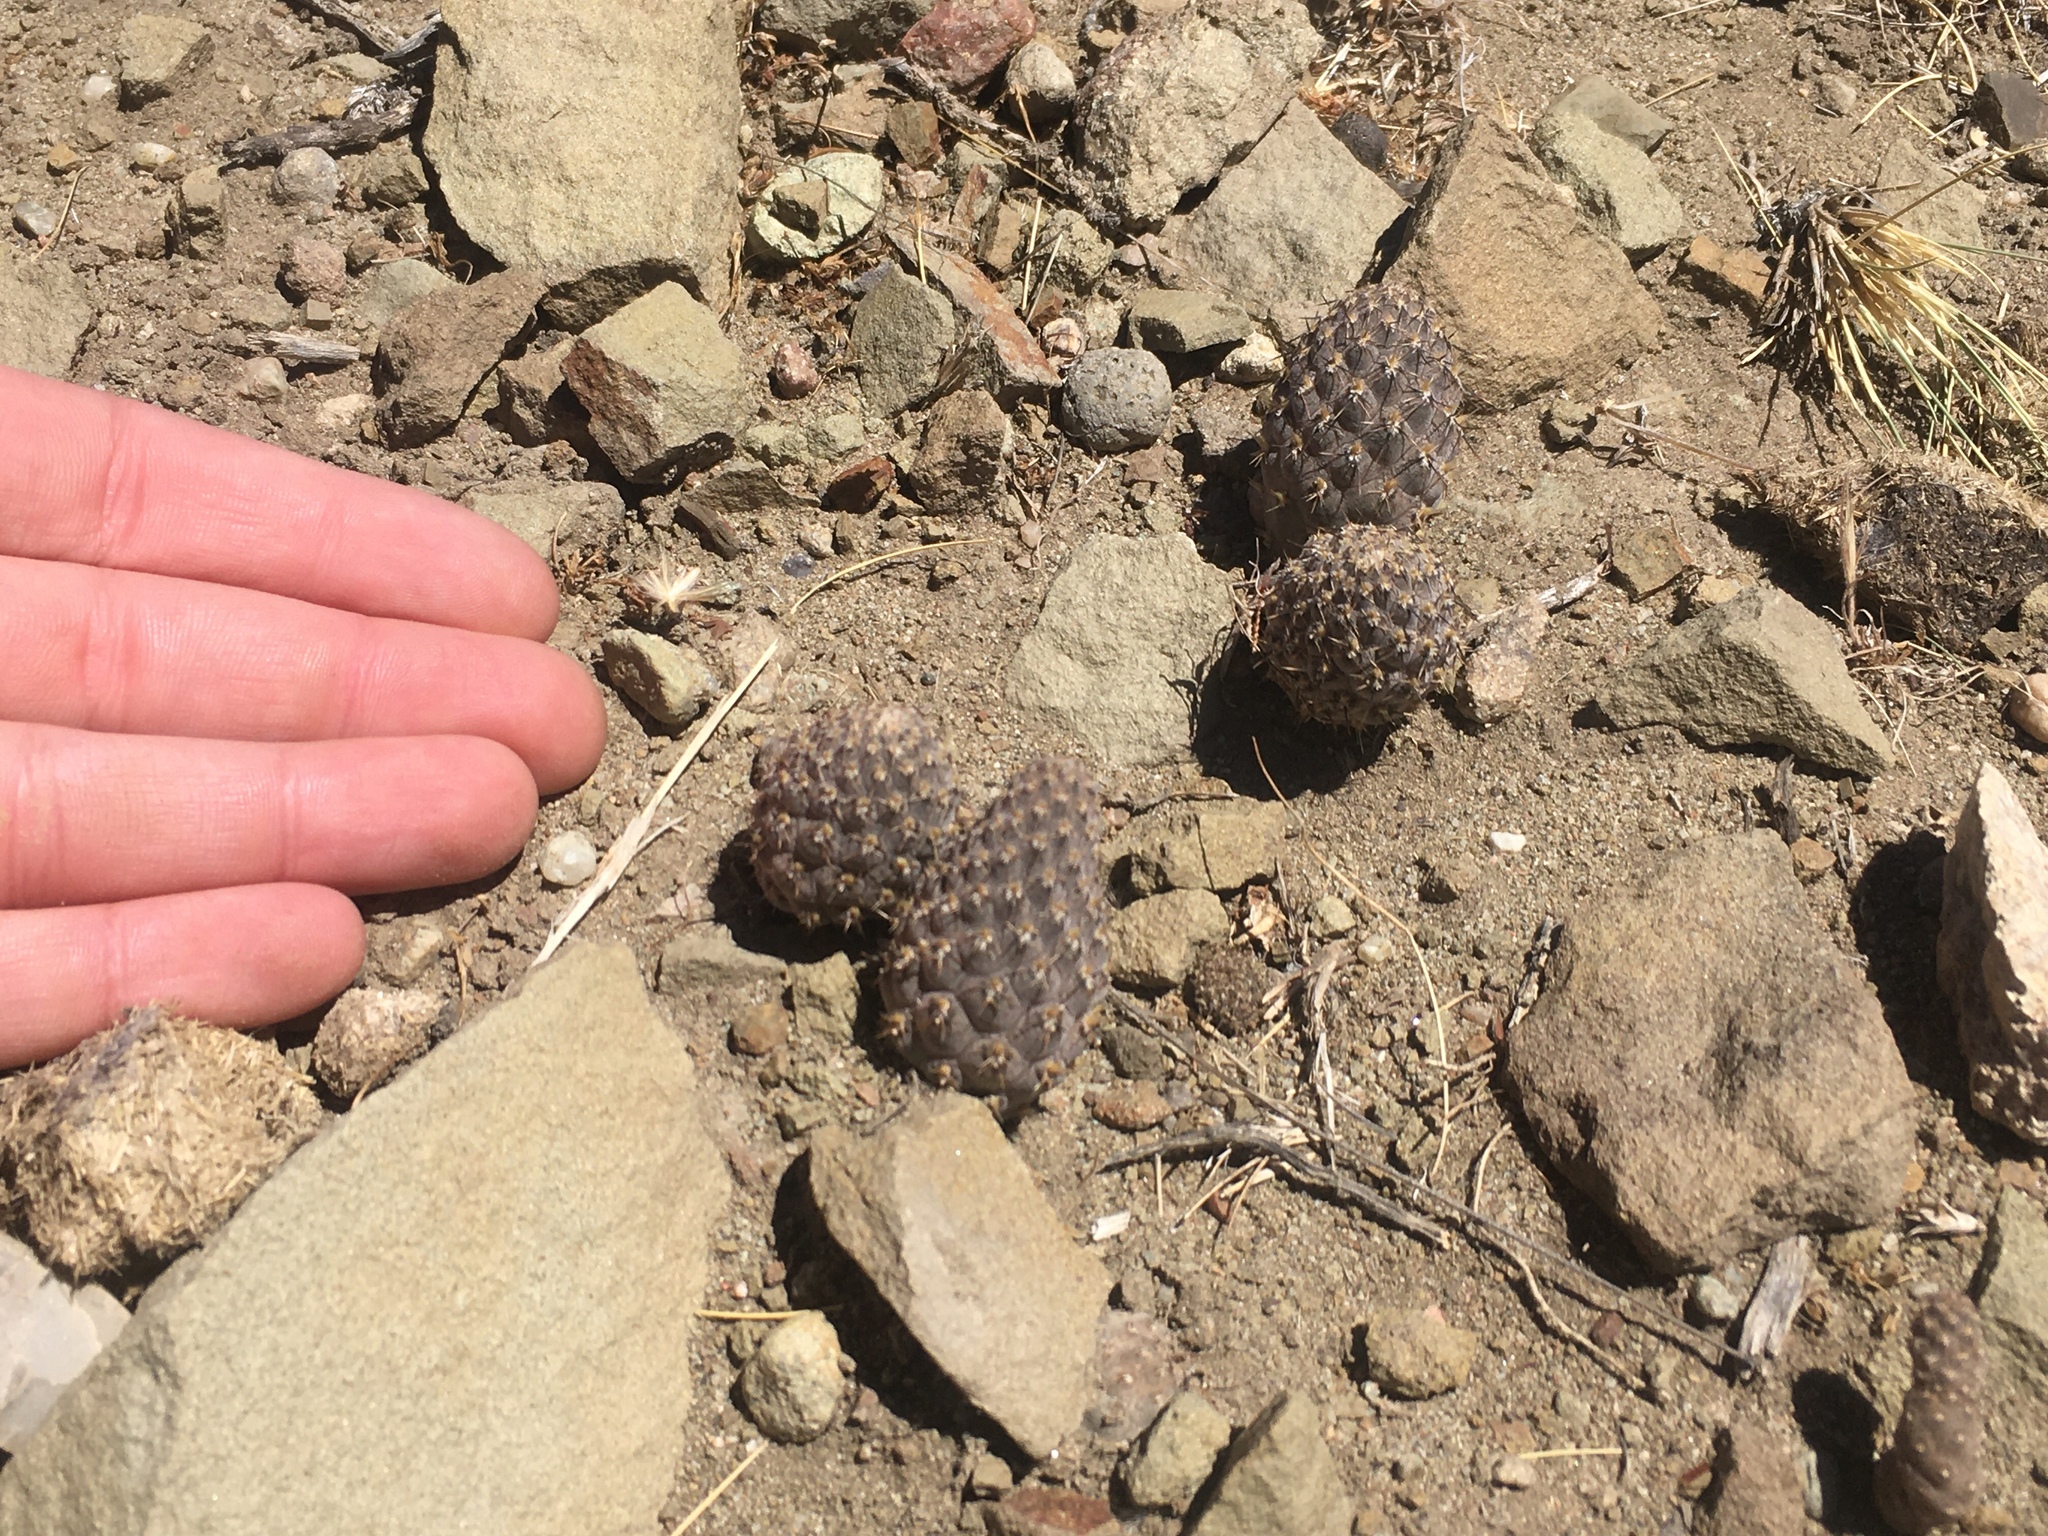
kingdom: Plantae
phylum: Tracheophyta
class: Magnoliopsida
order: Caryophyllales
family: Cactaceae
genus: Pterocactus
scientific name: Pterocactus neuquensis
